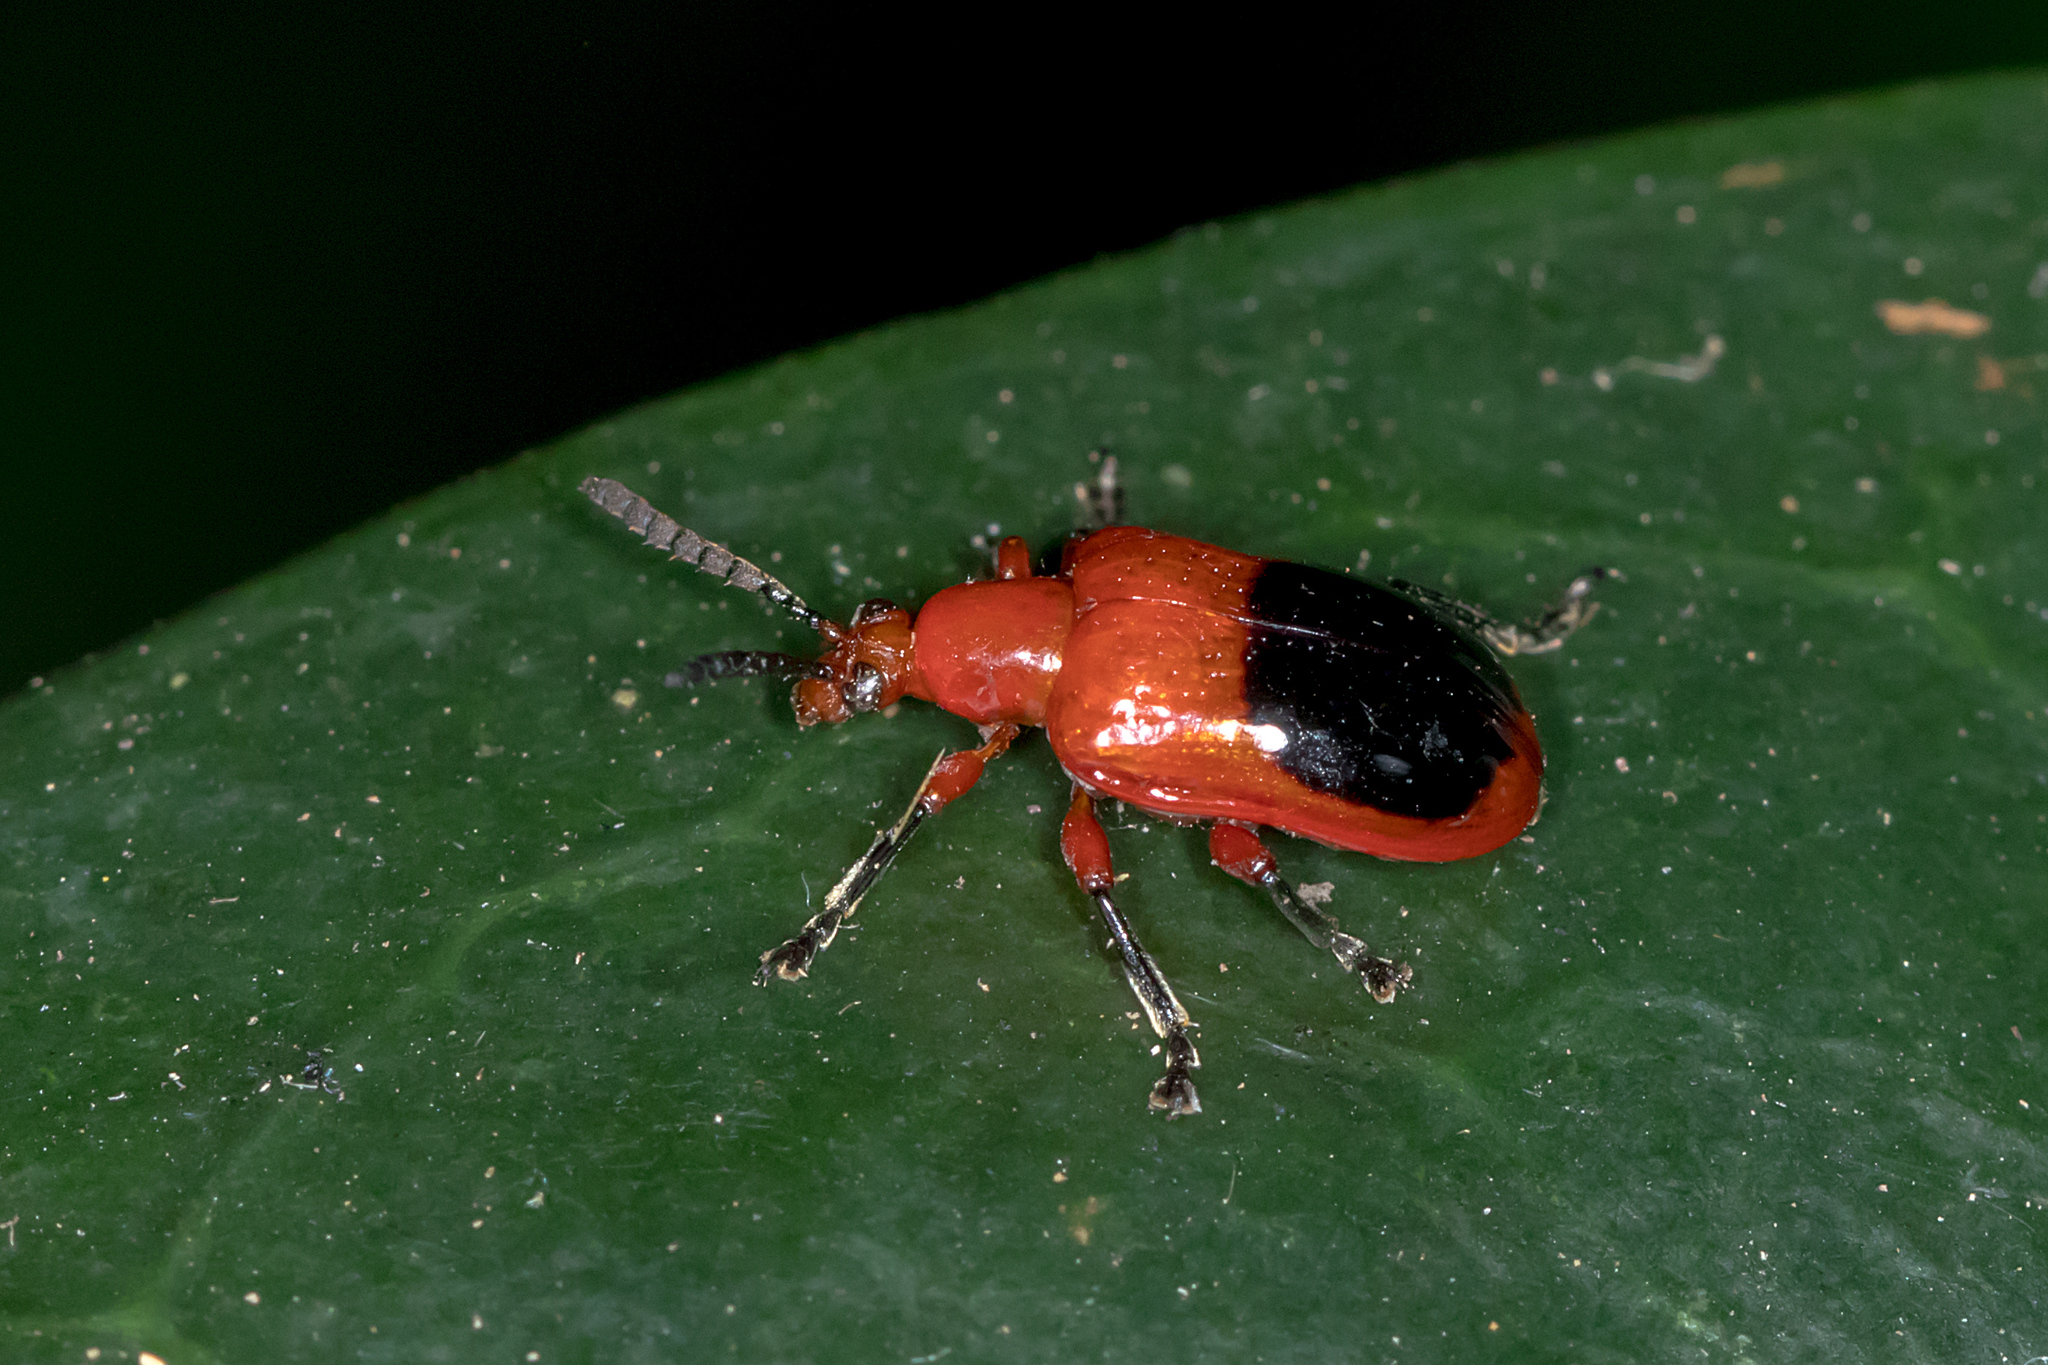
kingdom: Animalia
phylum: Arthropoda
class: Insecta
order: Coleoptera
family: Chrysomelidae
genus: Lilioceris
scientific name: Lilioceris
